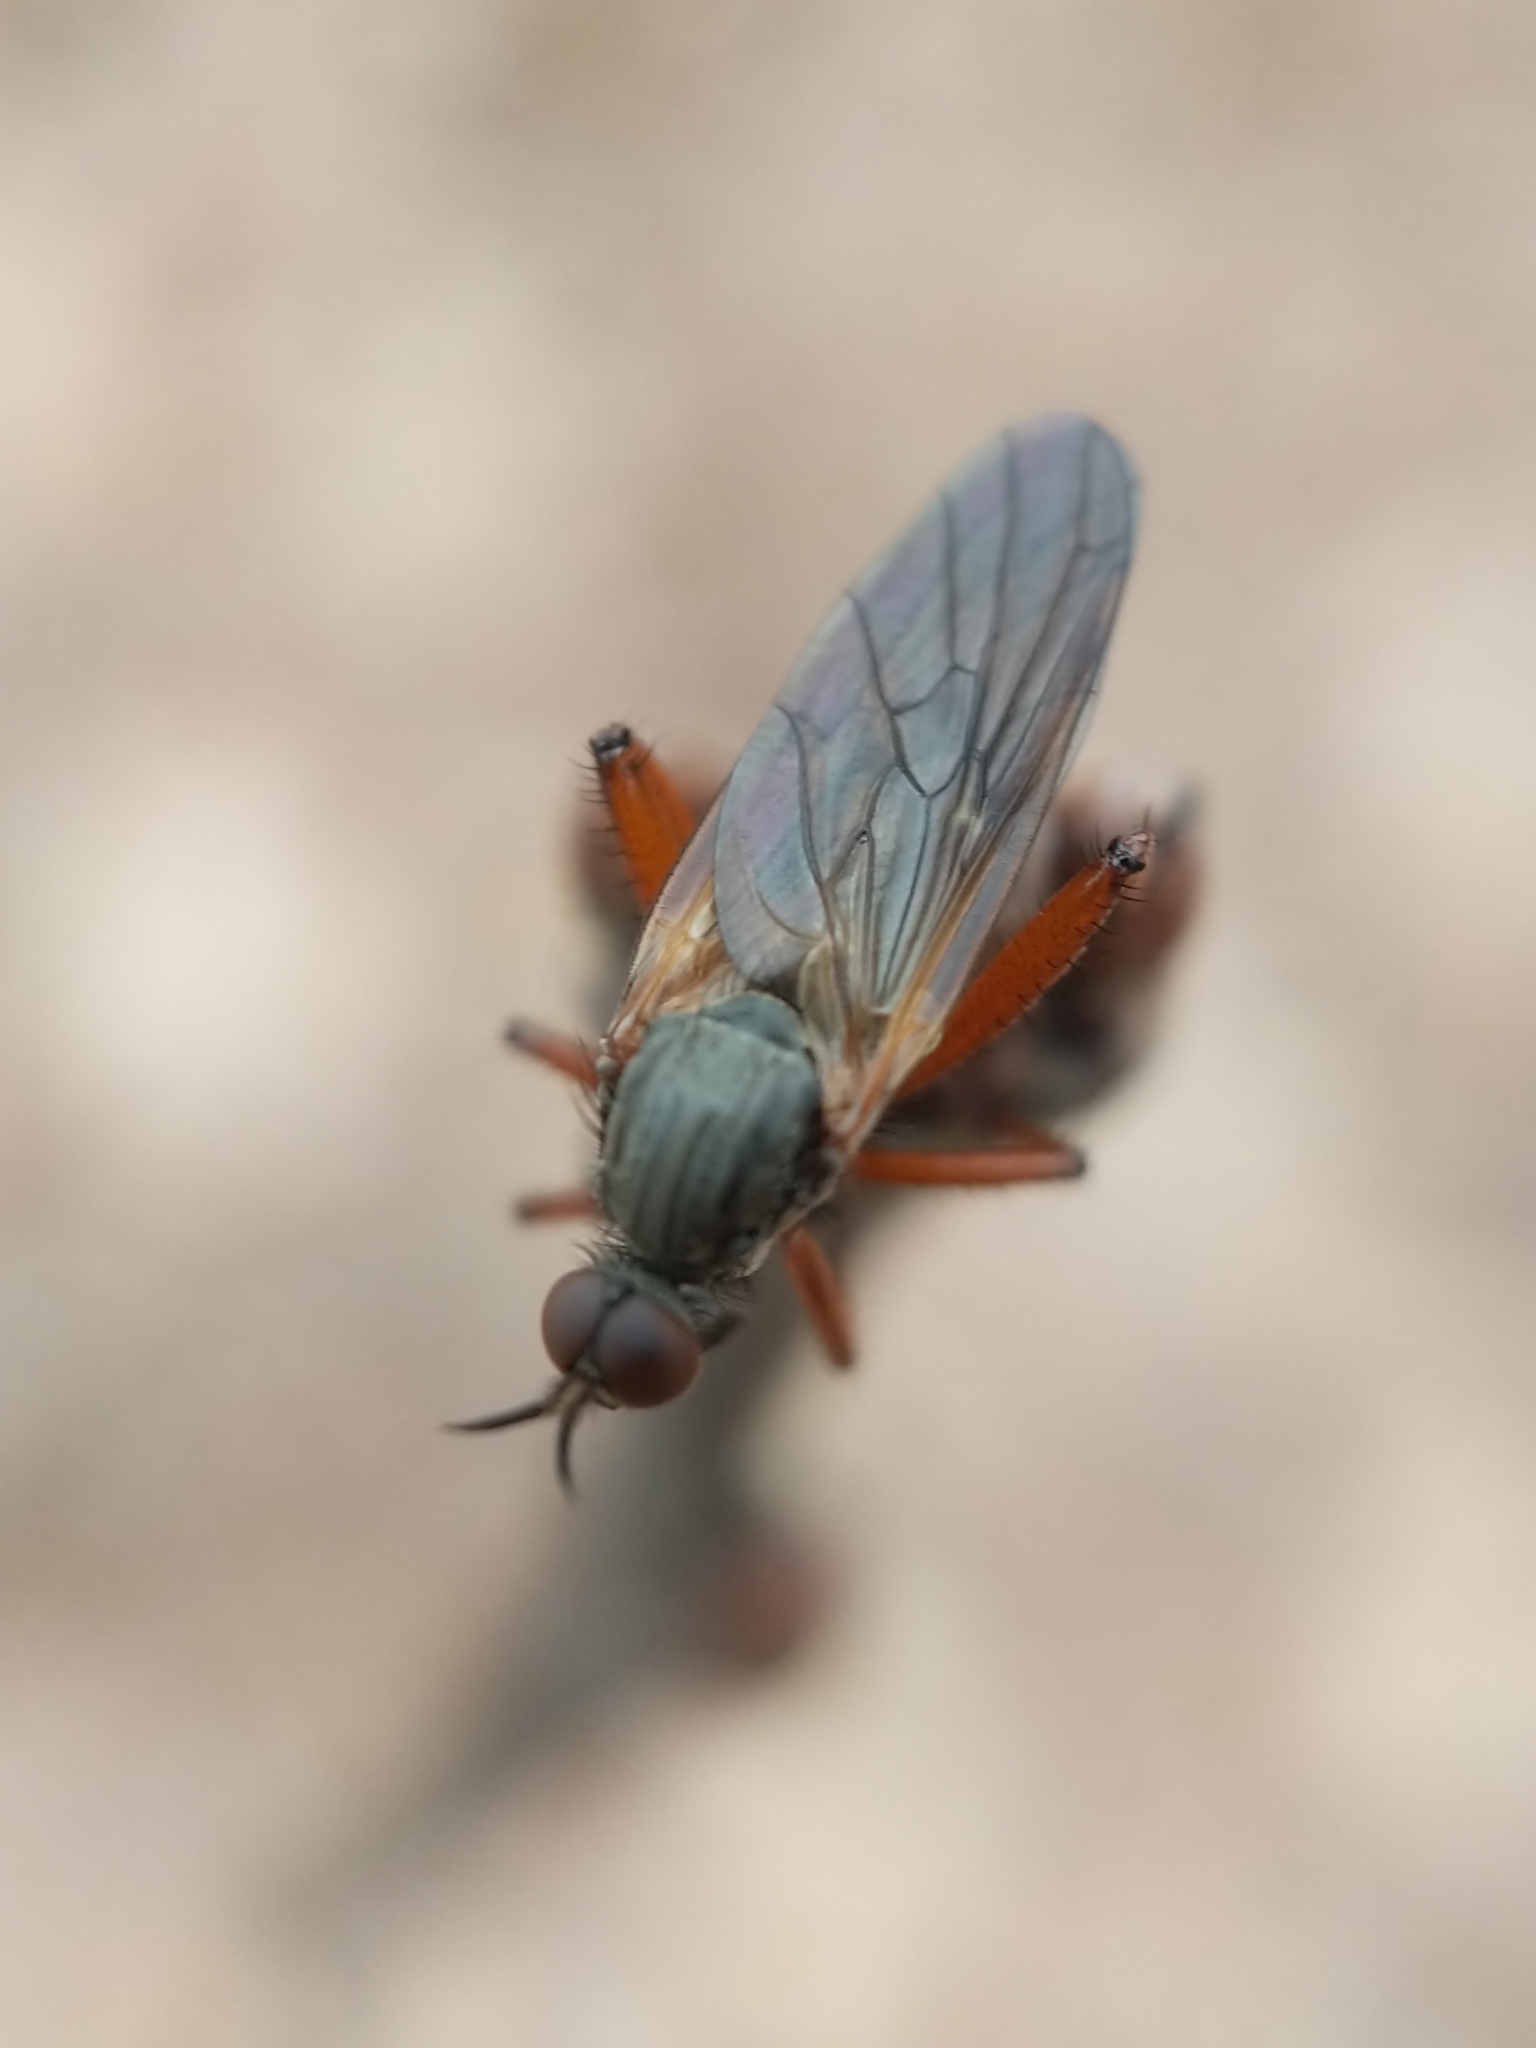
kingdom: Animalia
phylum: Arthropoda
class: Insecta
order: Diptera
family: Empididae
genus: Empis
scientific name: Empis spectabilis
